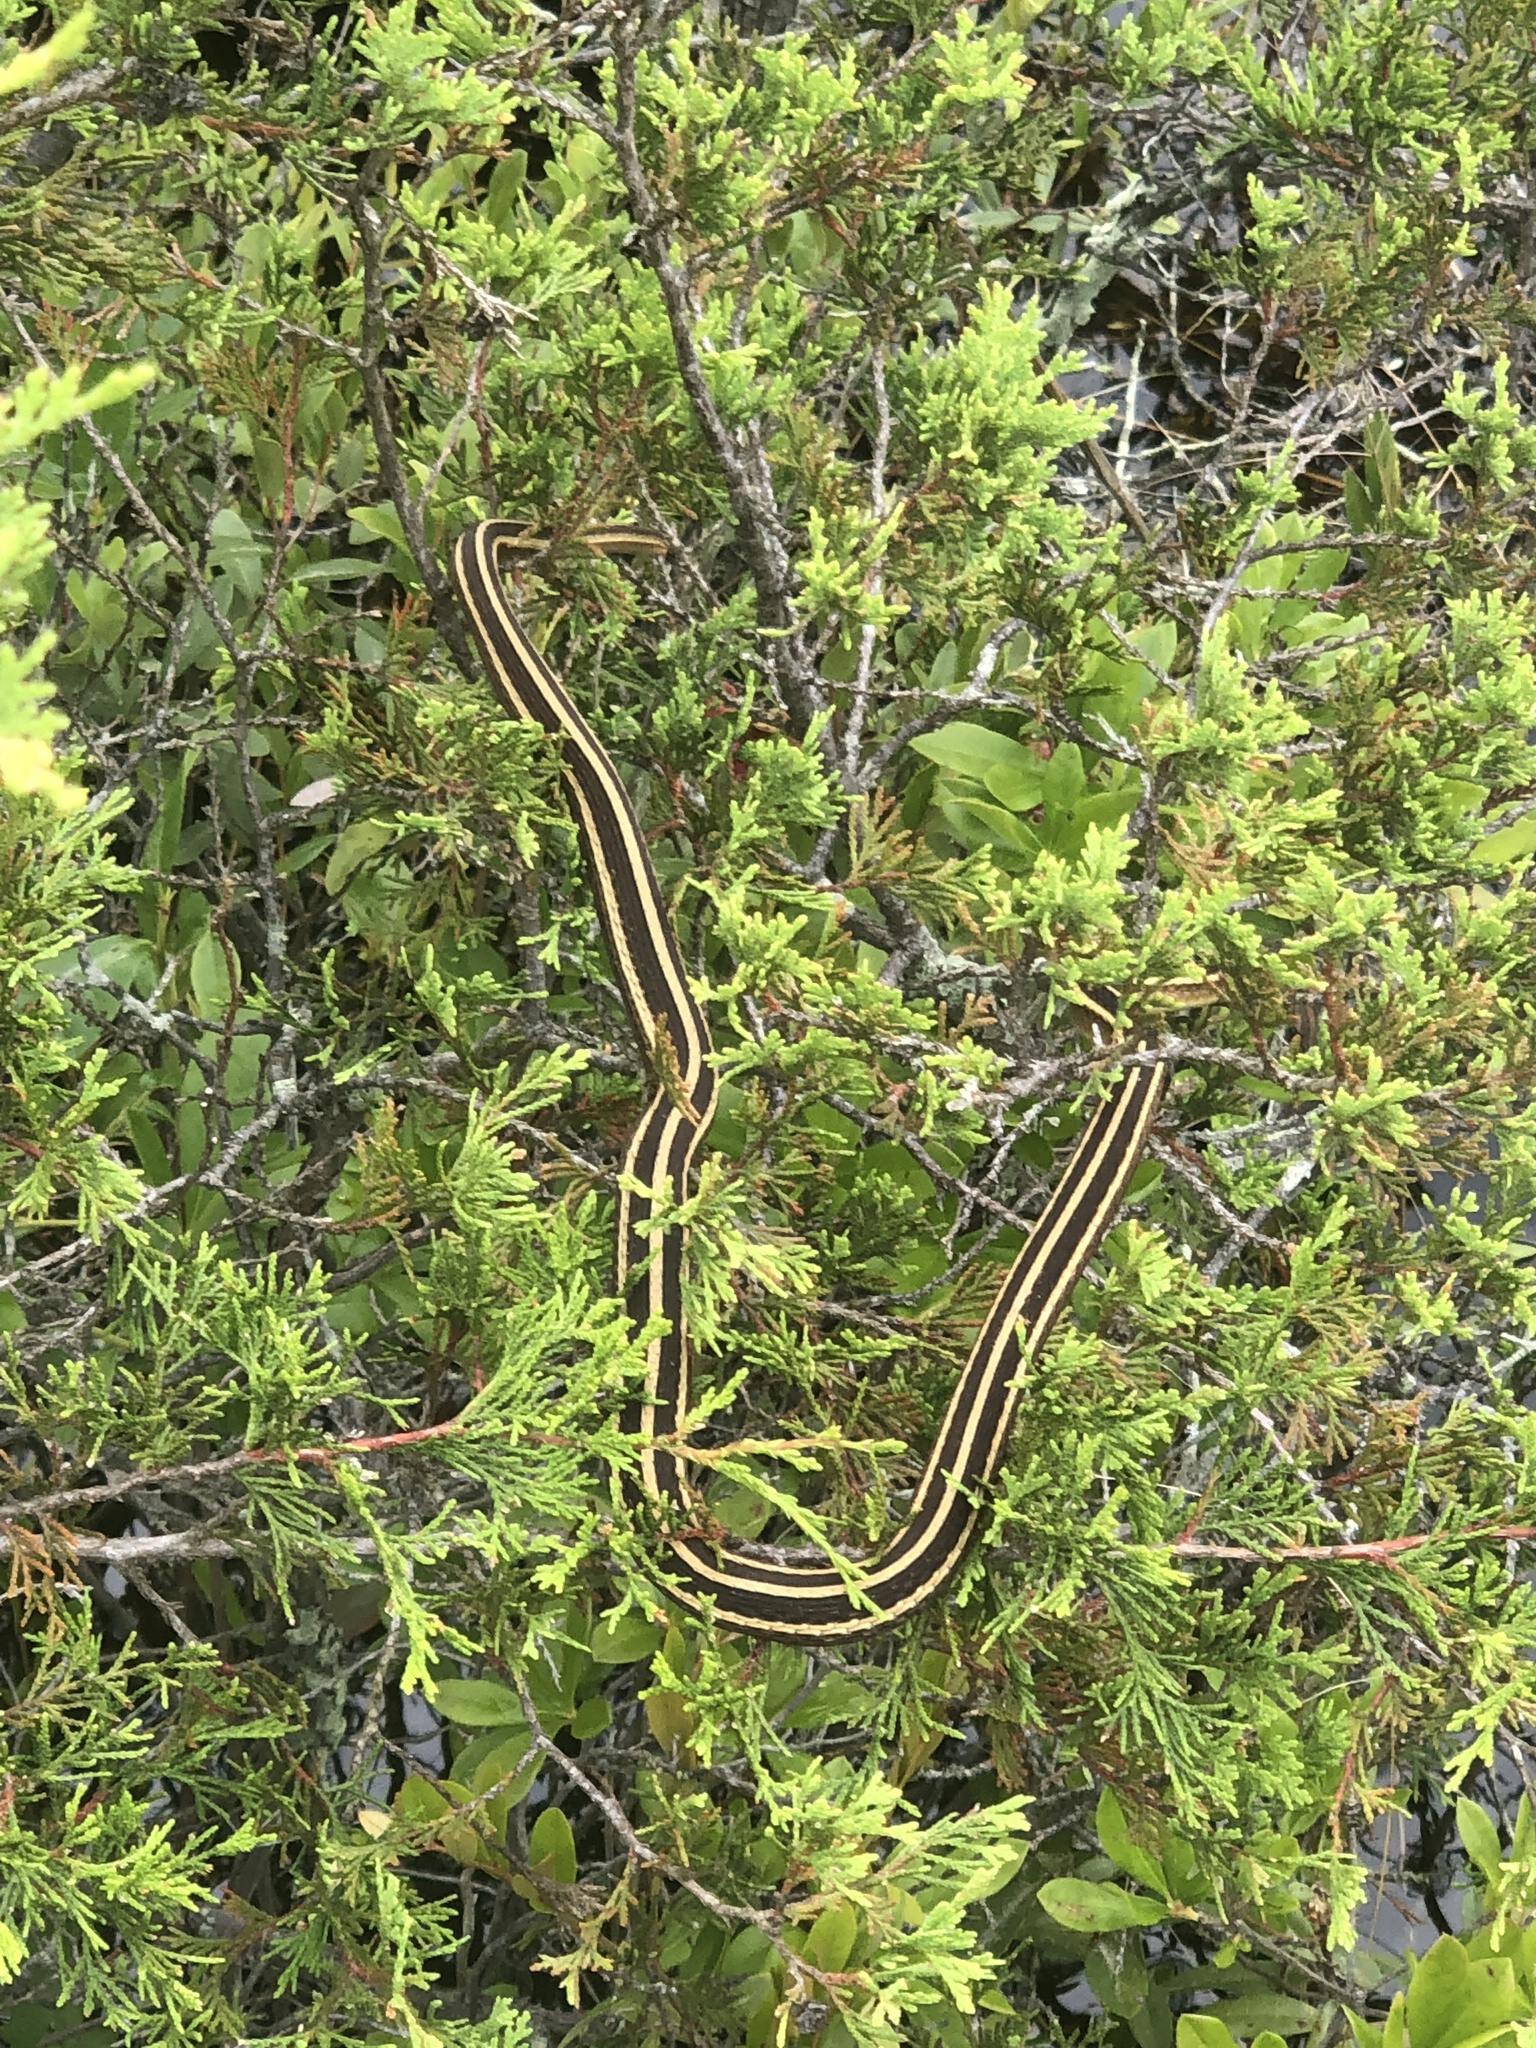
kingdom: Animalia
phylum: Chordata
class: Squamata
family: Colubridae
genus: Thamnophis
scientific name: Thamnophis saurita
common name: Eastern ribbonsnake
